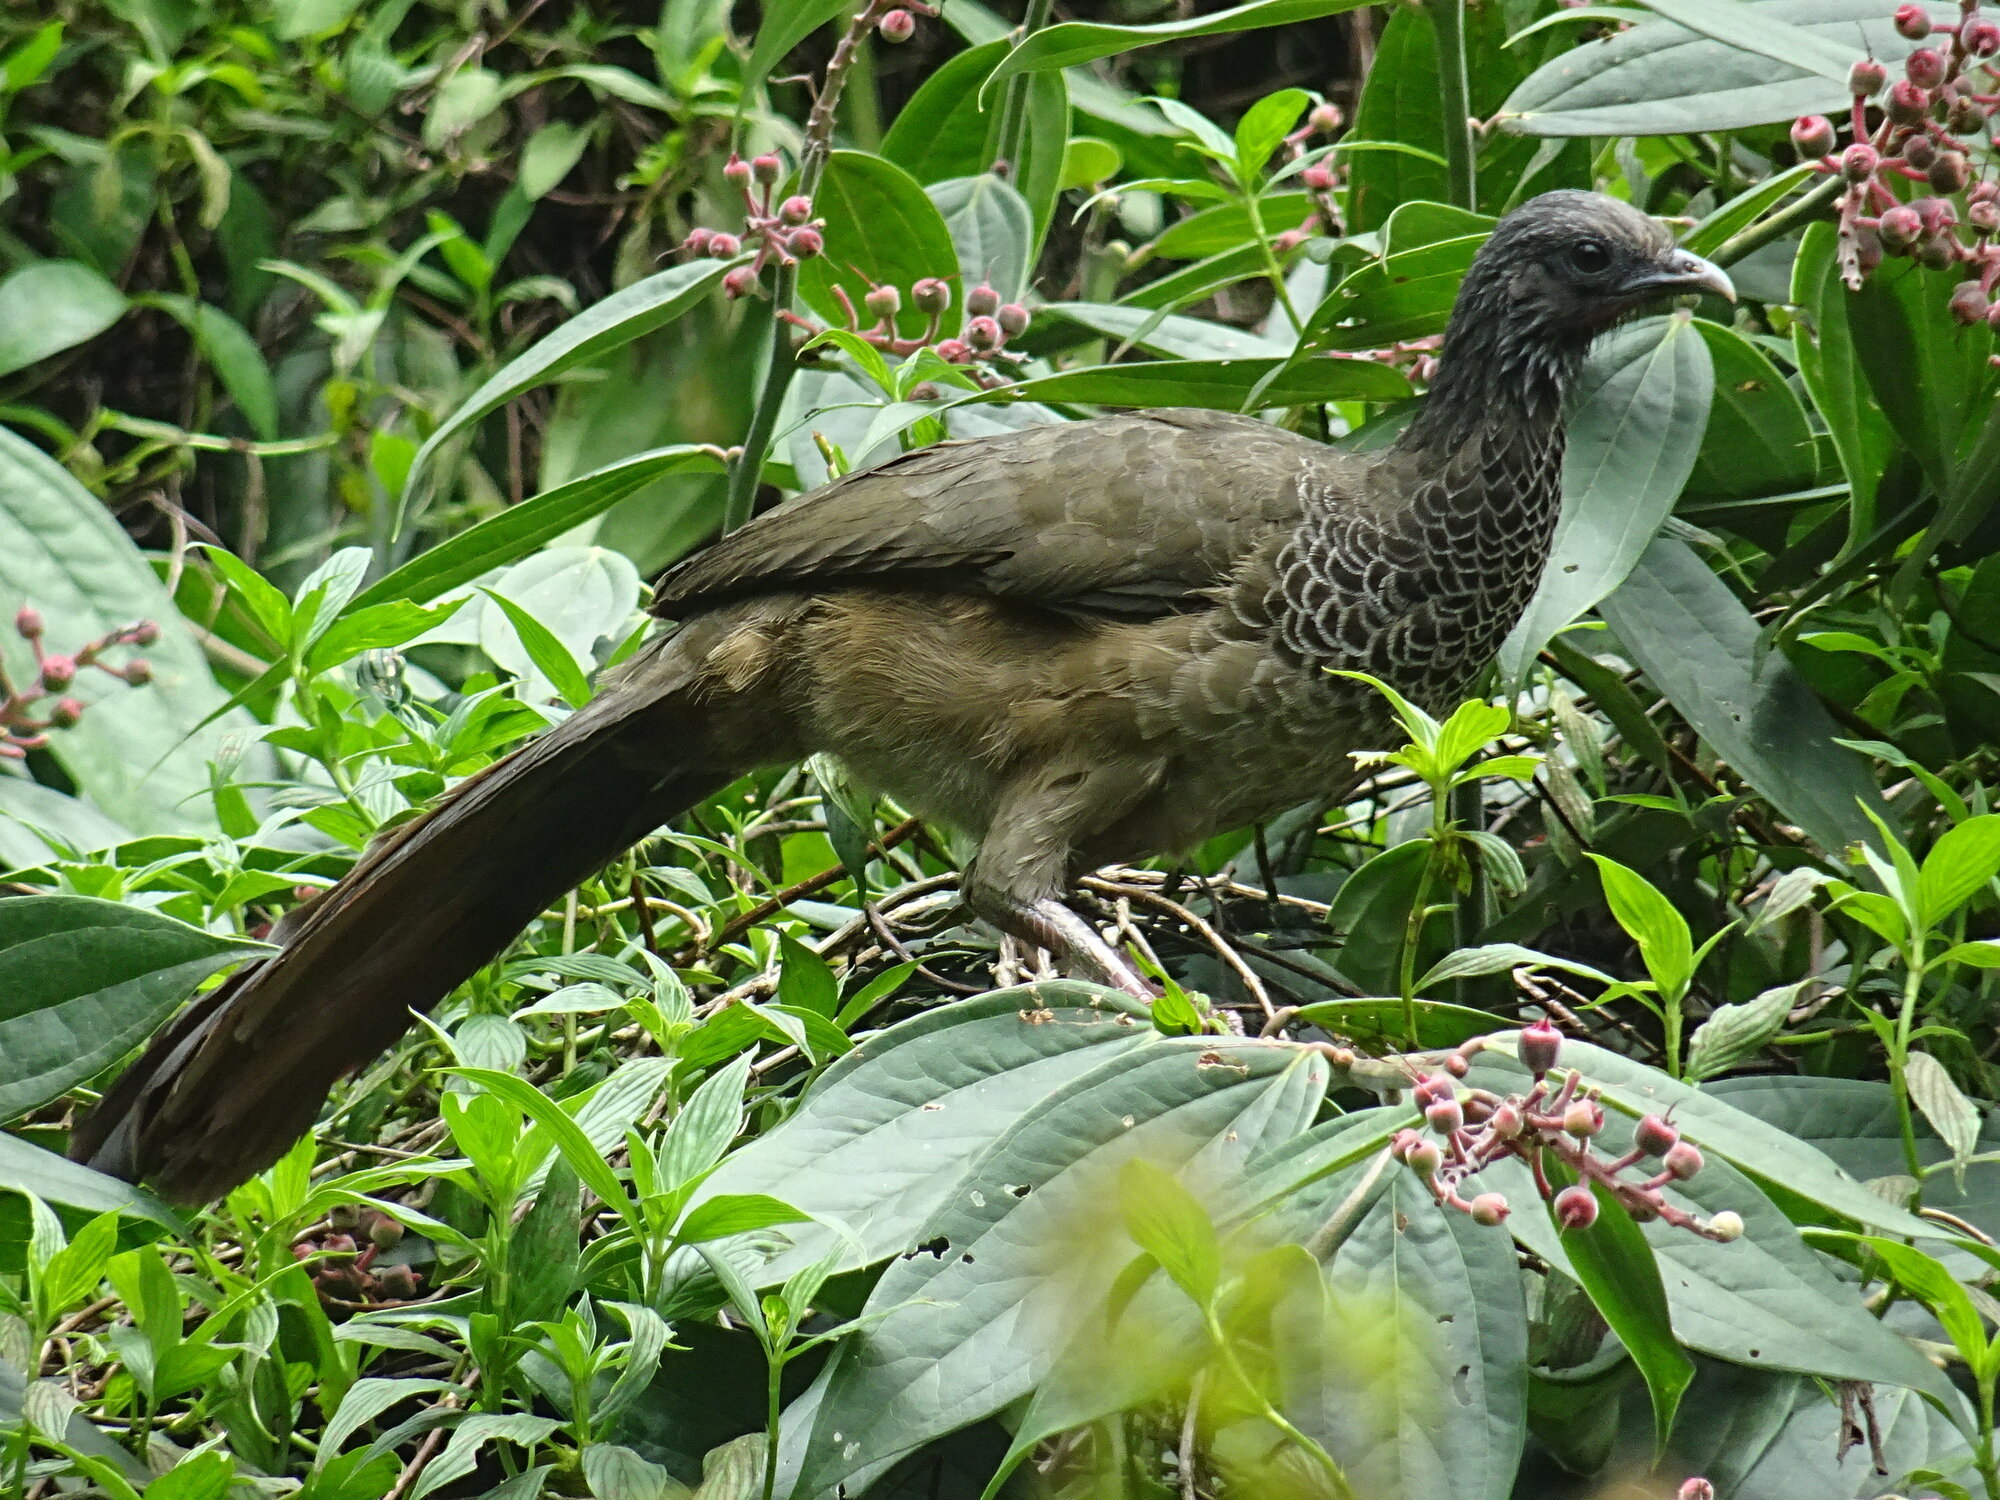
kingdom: Animalia
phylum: Chordata
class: Aves
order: Galliformes
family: Cracidae
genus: Ortalis
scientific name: Ortalis columbiana
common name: Colombian chachalaca
